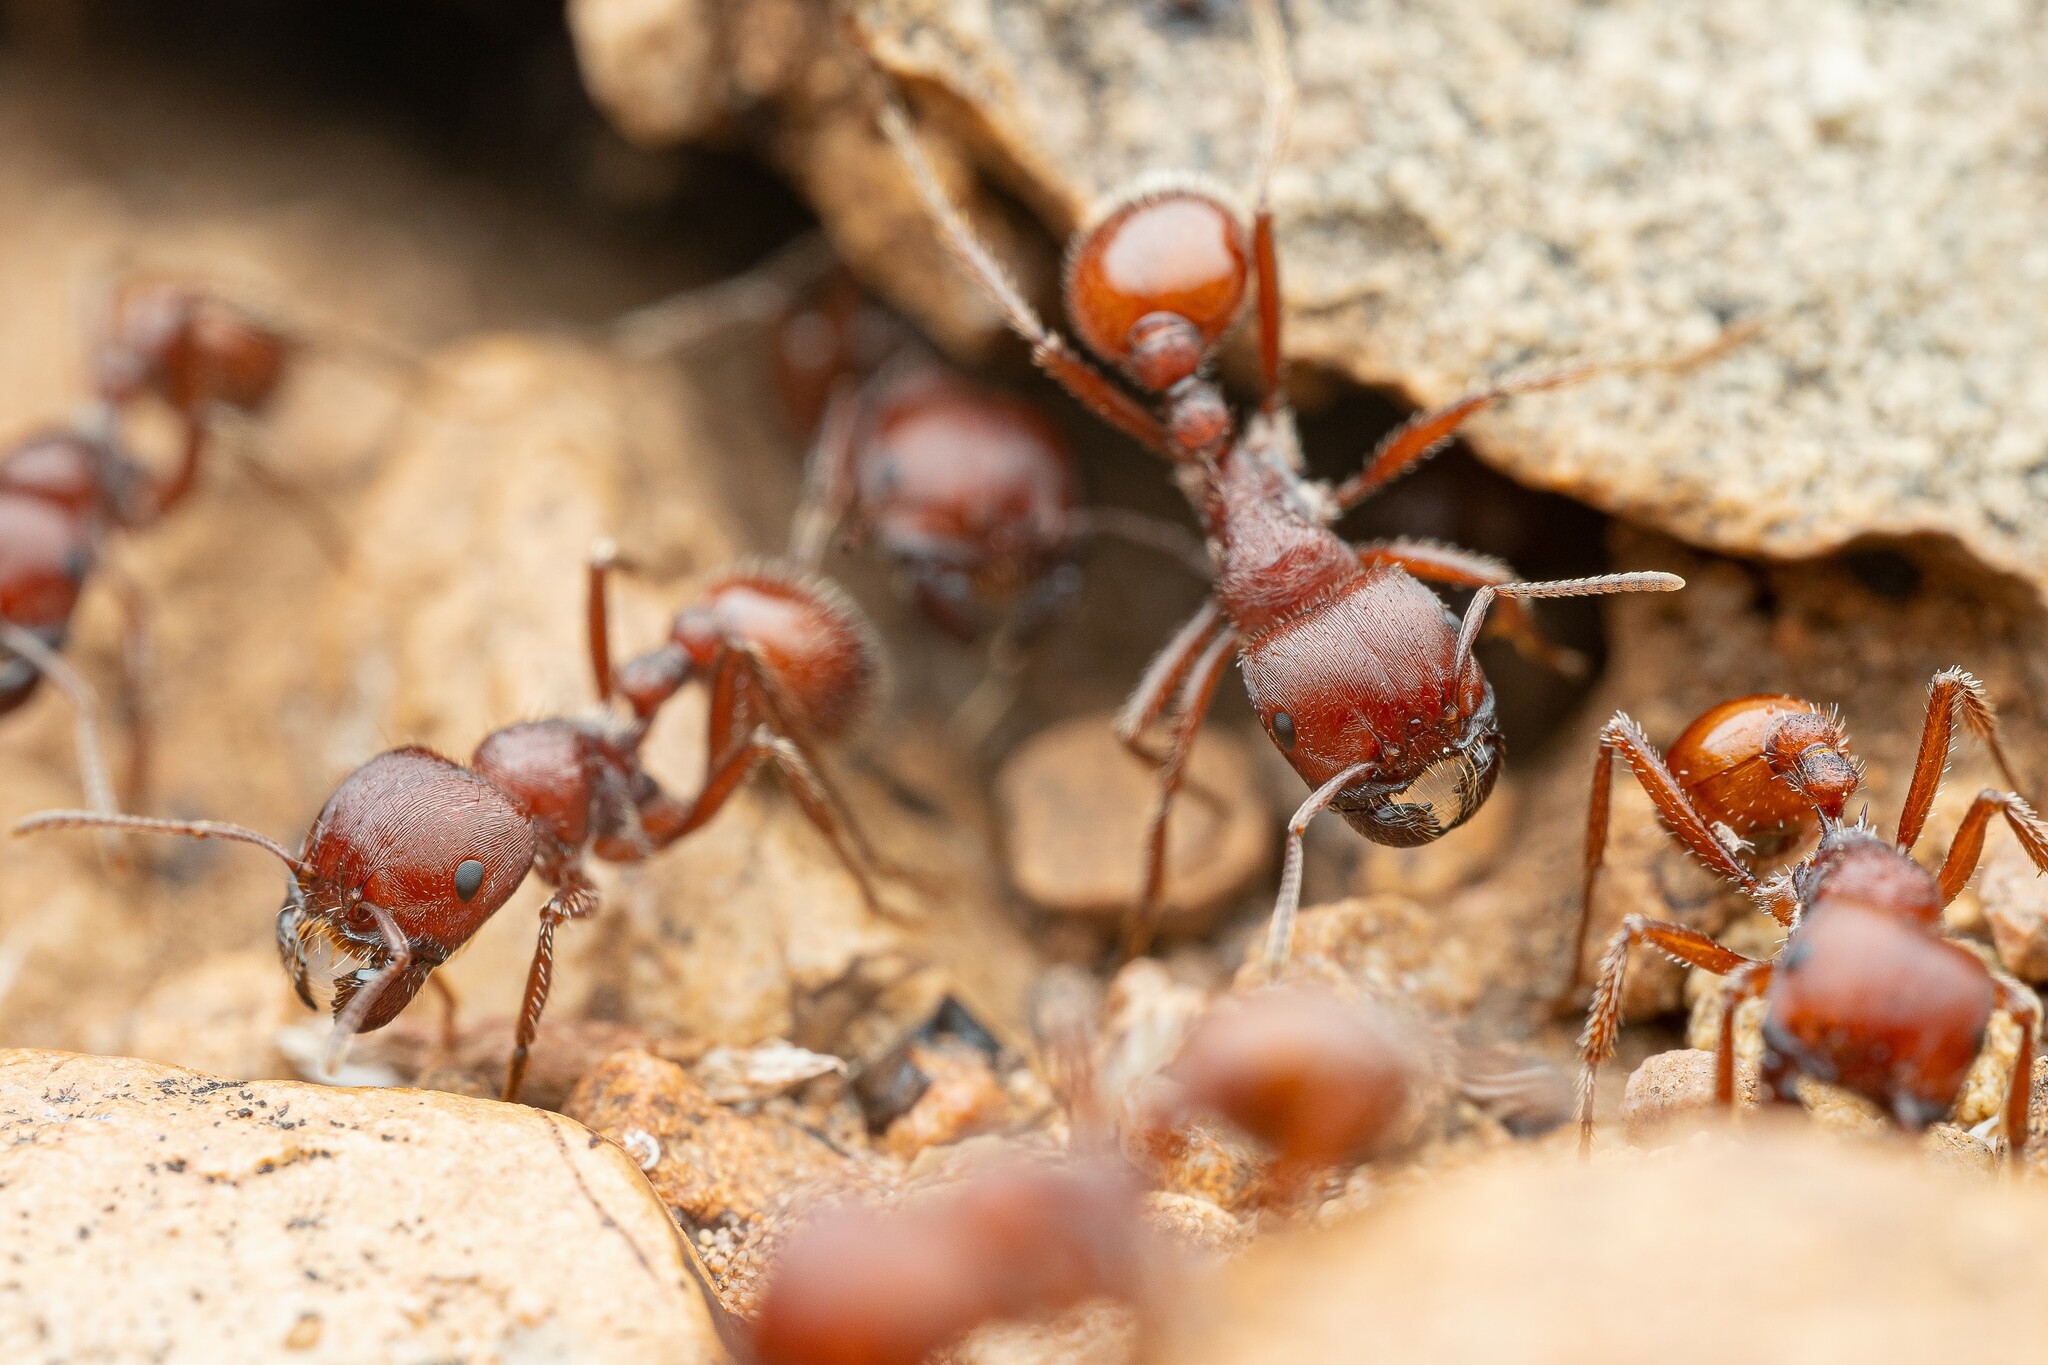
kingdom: Animalia
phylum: Arthropoda
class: Insecta
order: Hymenoptera
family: Formicidae
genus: Pogonomyrmex
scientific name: Pogonomyrmex barbatus
